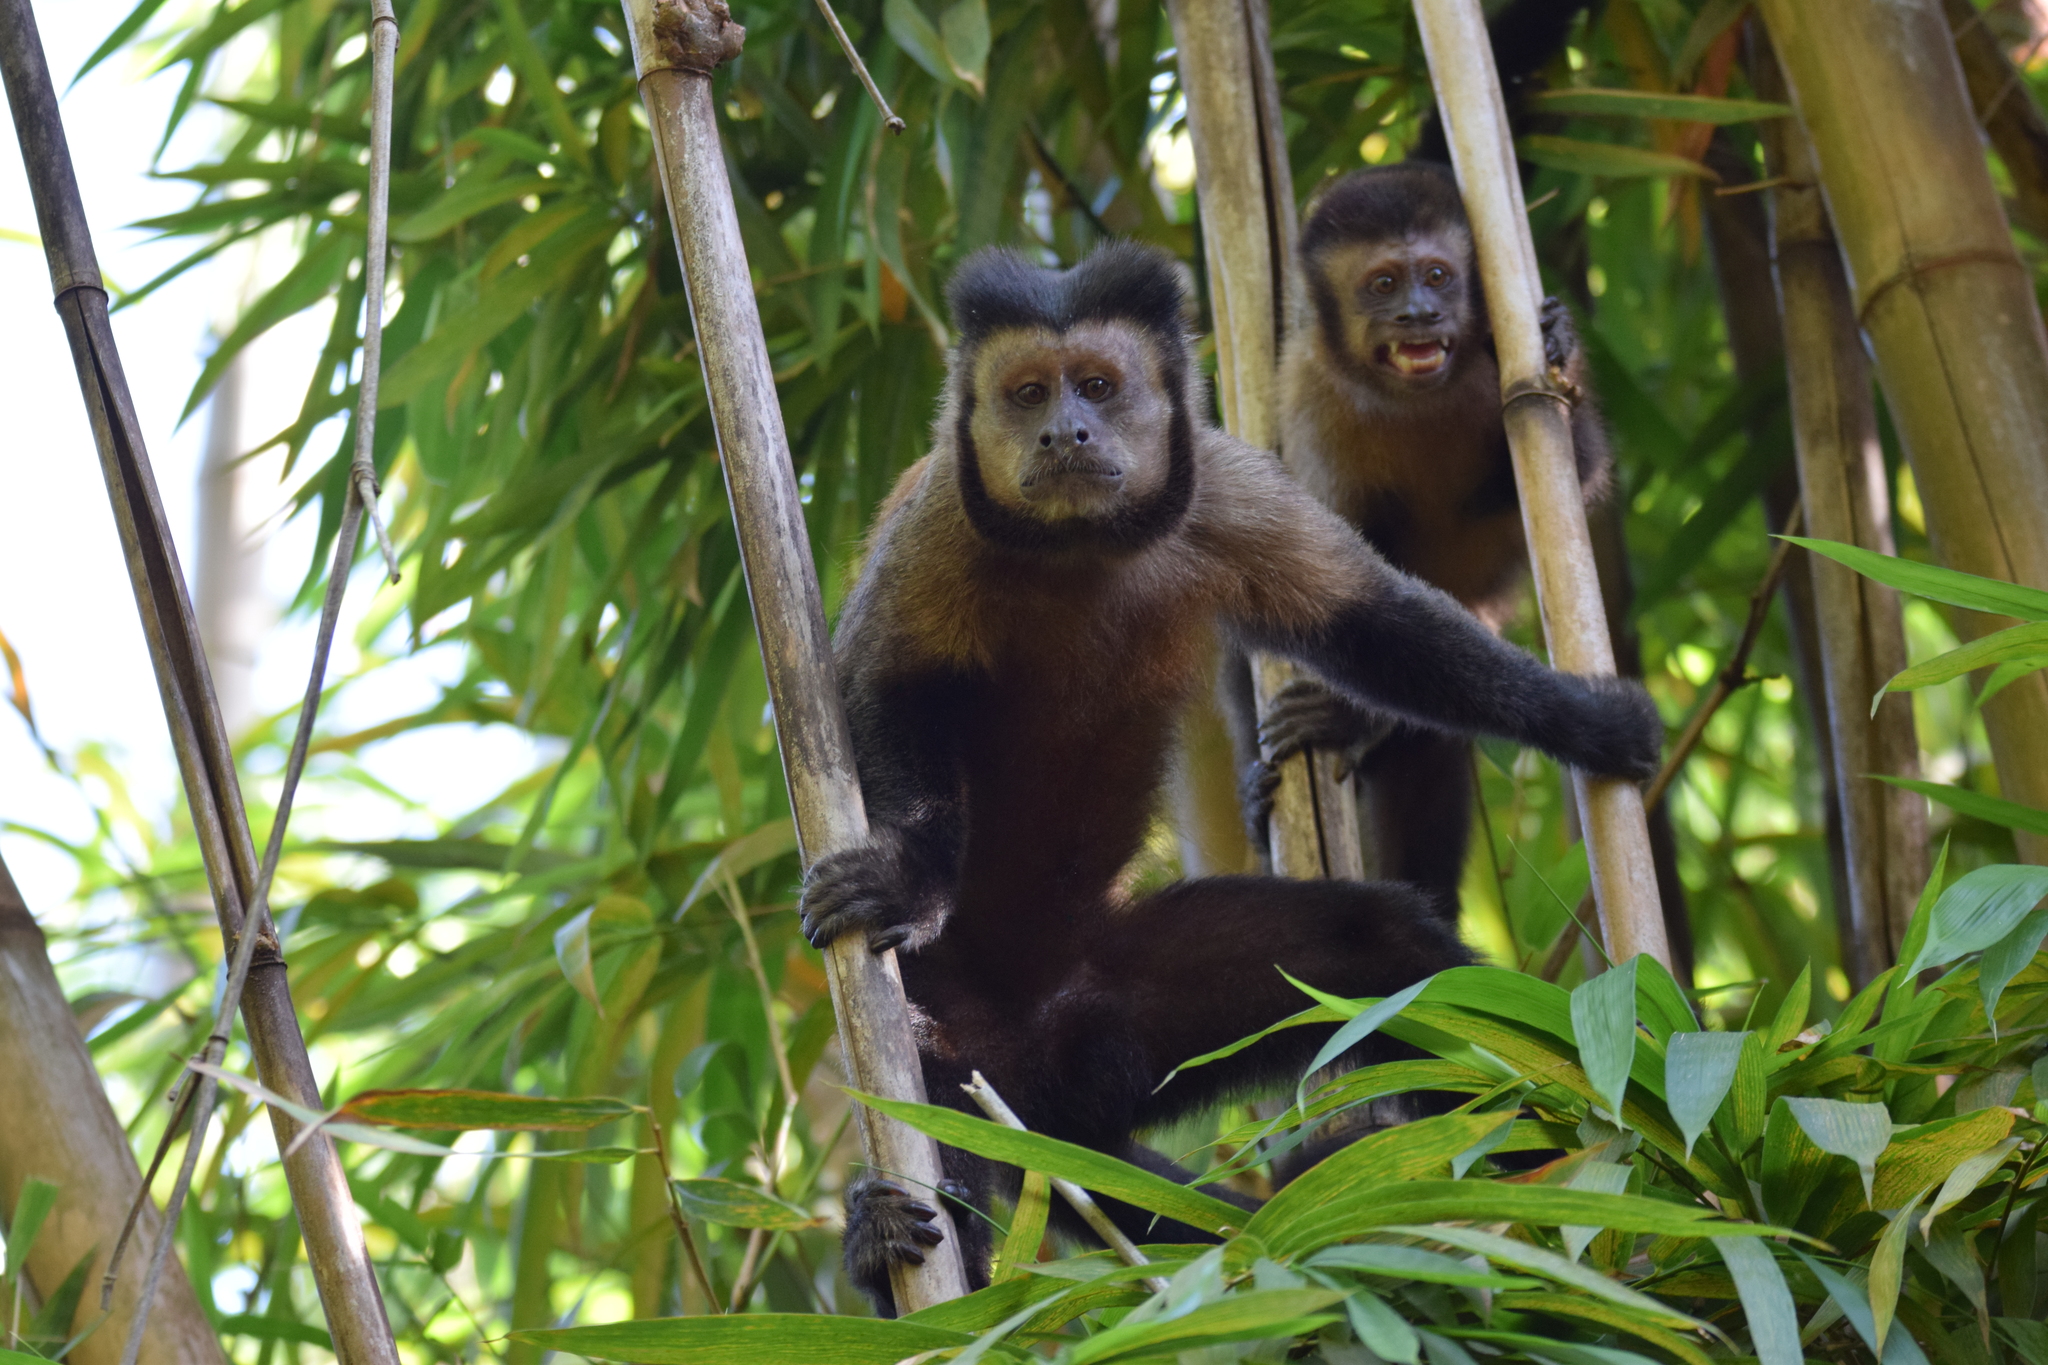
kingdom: Animalia
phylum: Chordata
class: Mammalia
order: Primates
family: Cebidae
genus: Sapajus
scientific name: Sapajus nigritus
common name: Black capuchin
